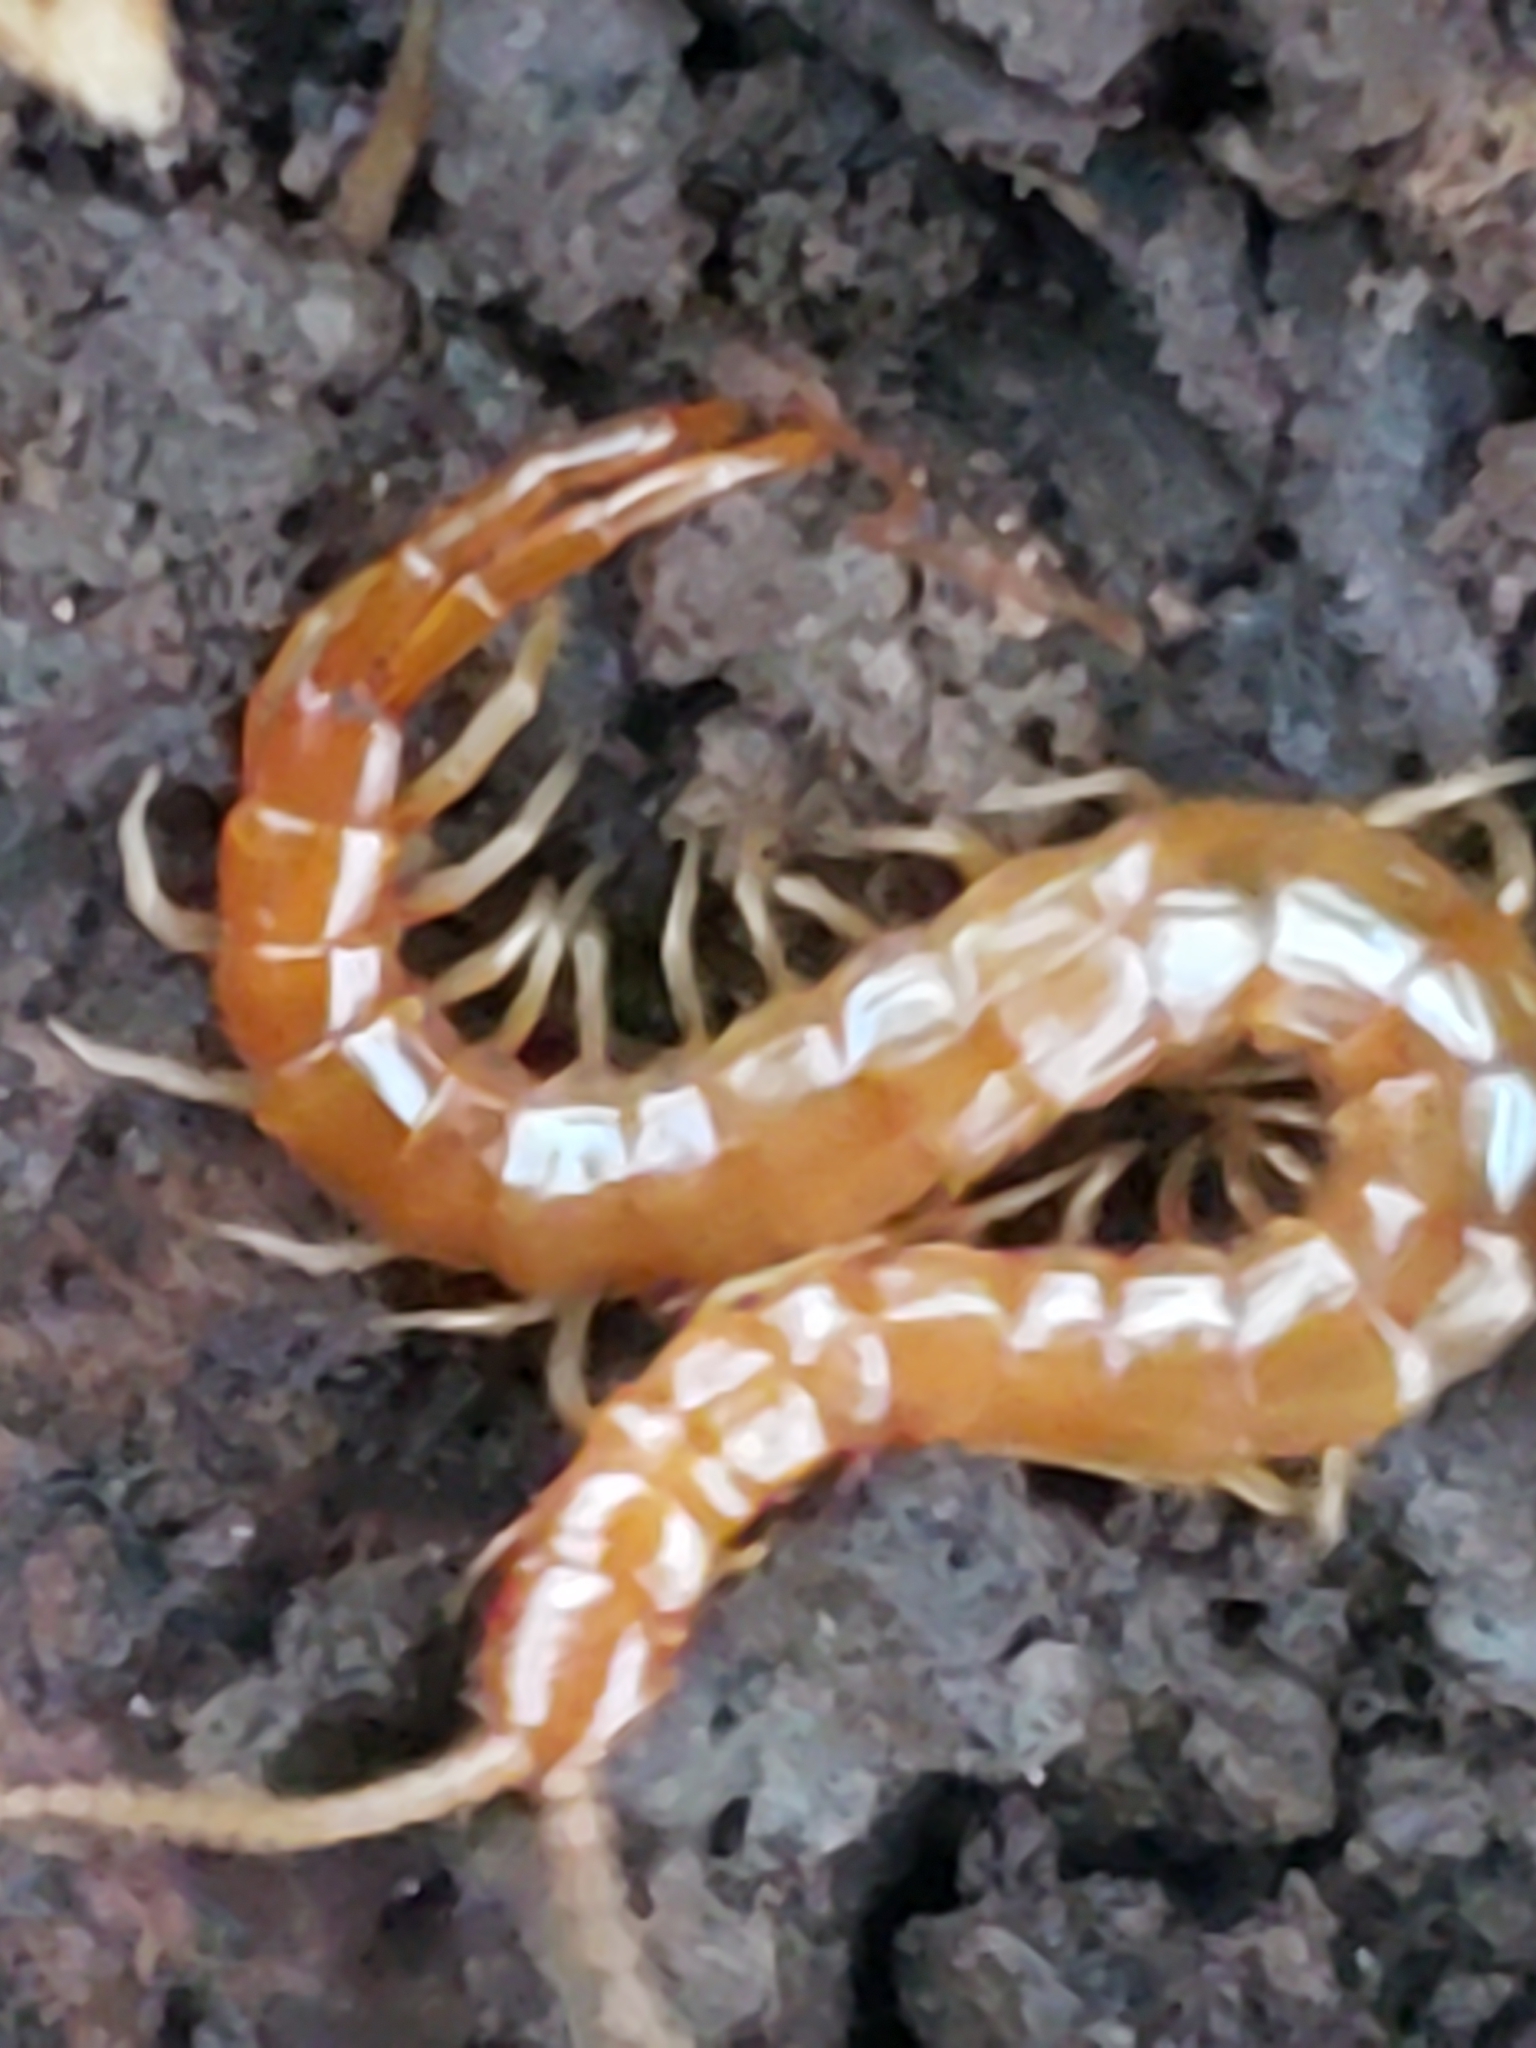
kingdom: Animalia
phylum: Arthropoda
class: Chilopoda
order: Scolopendromorpha
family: Scolopocryptopidae
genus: Scolopocryptops
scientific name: Scolopocryptops peregrinator
